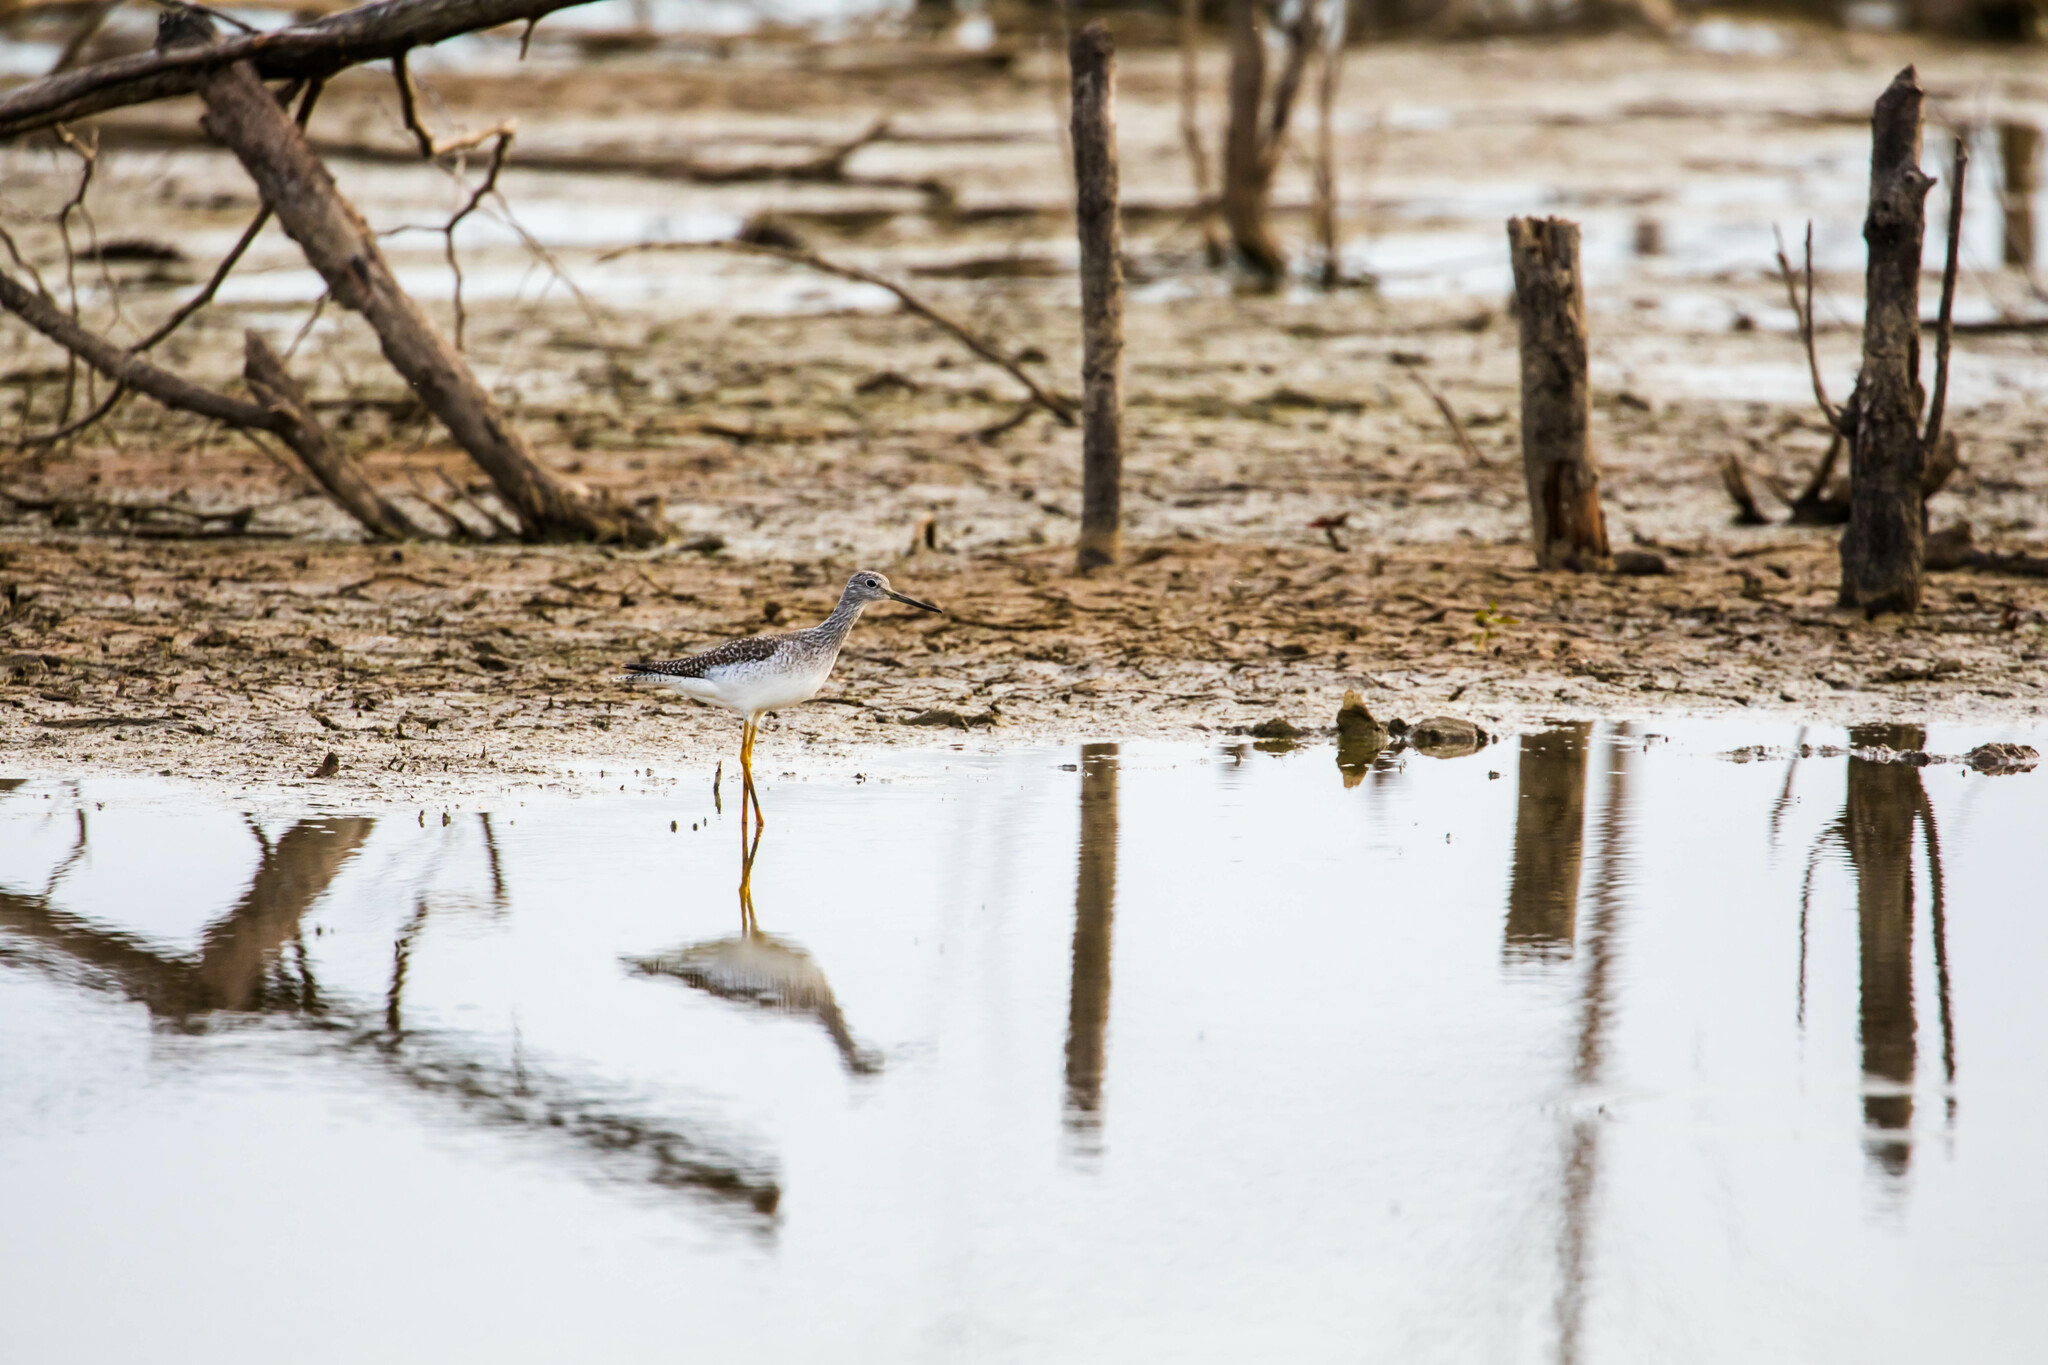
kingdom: Animalia
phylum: Chordata
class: Aves
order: Charadriiformes
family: Scolopacidae
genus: Tringa
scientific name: Tringa melanoleuca
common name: Greater yellowlegs
